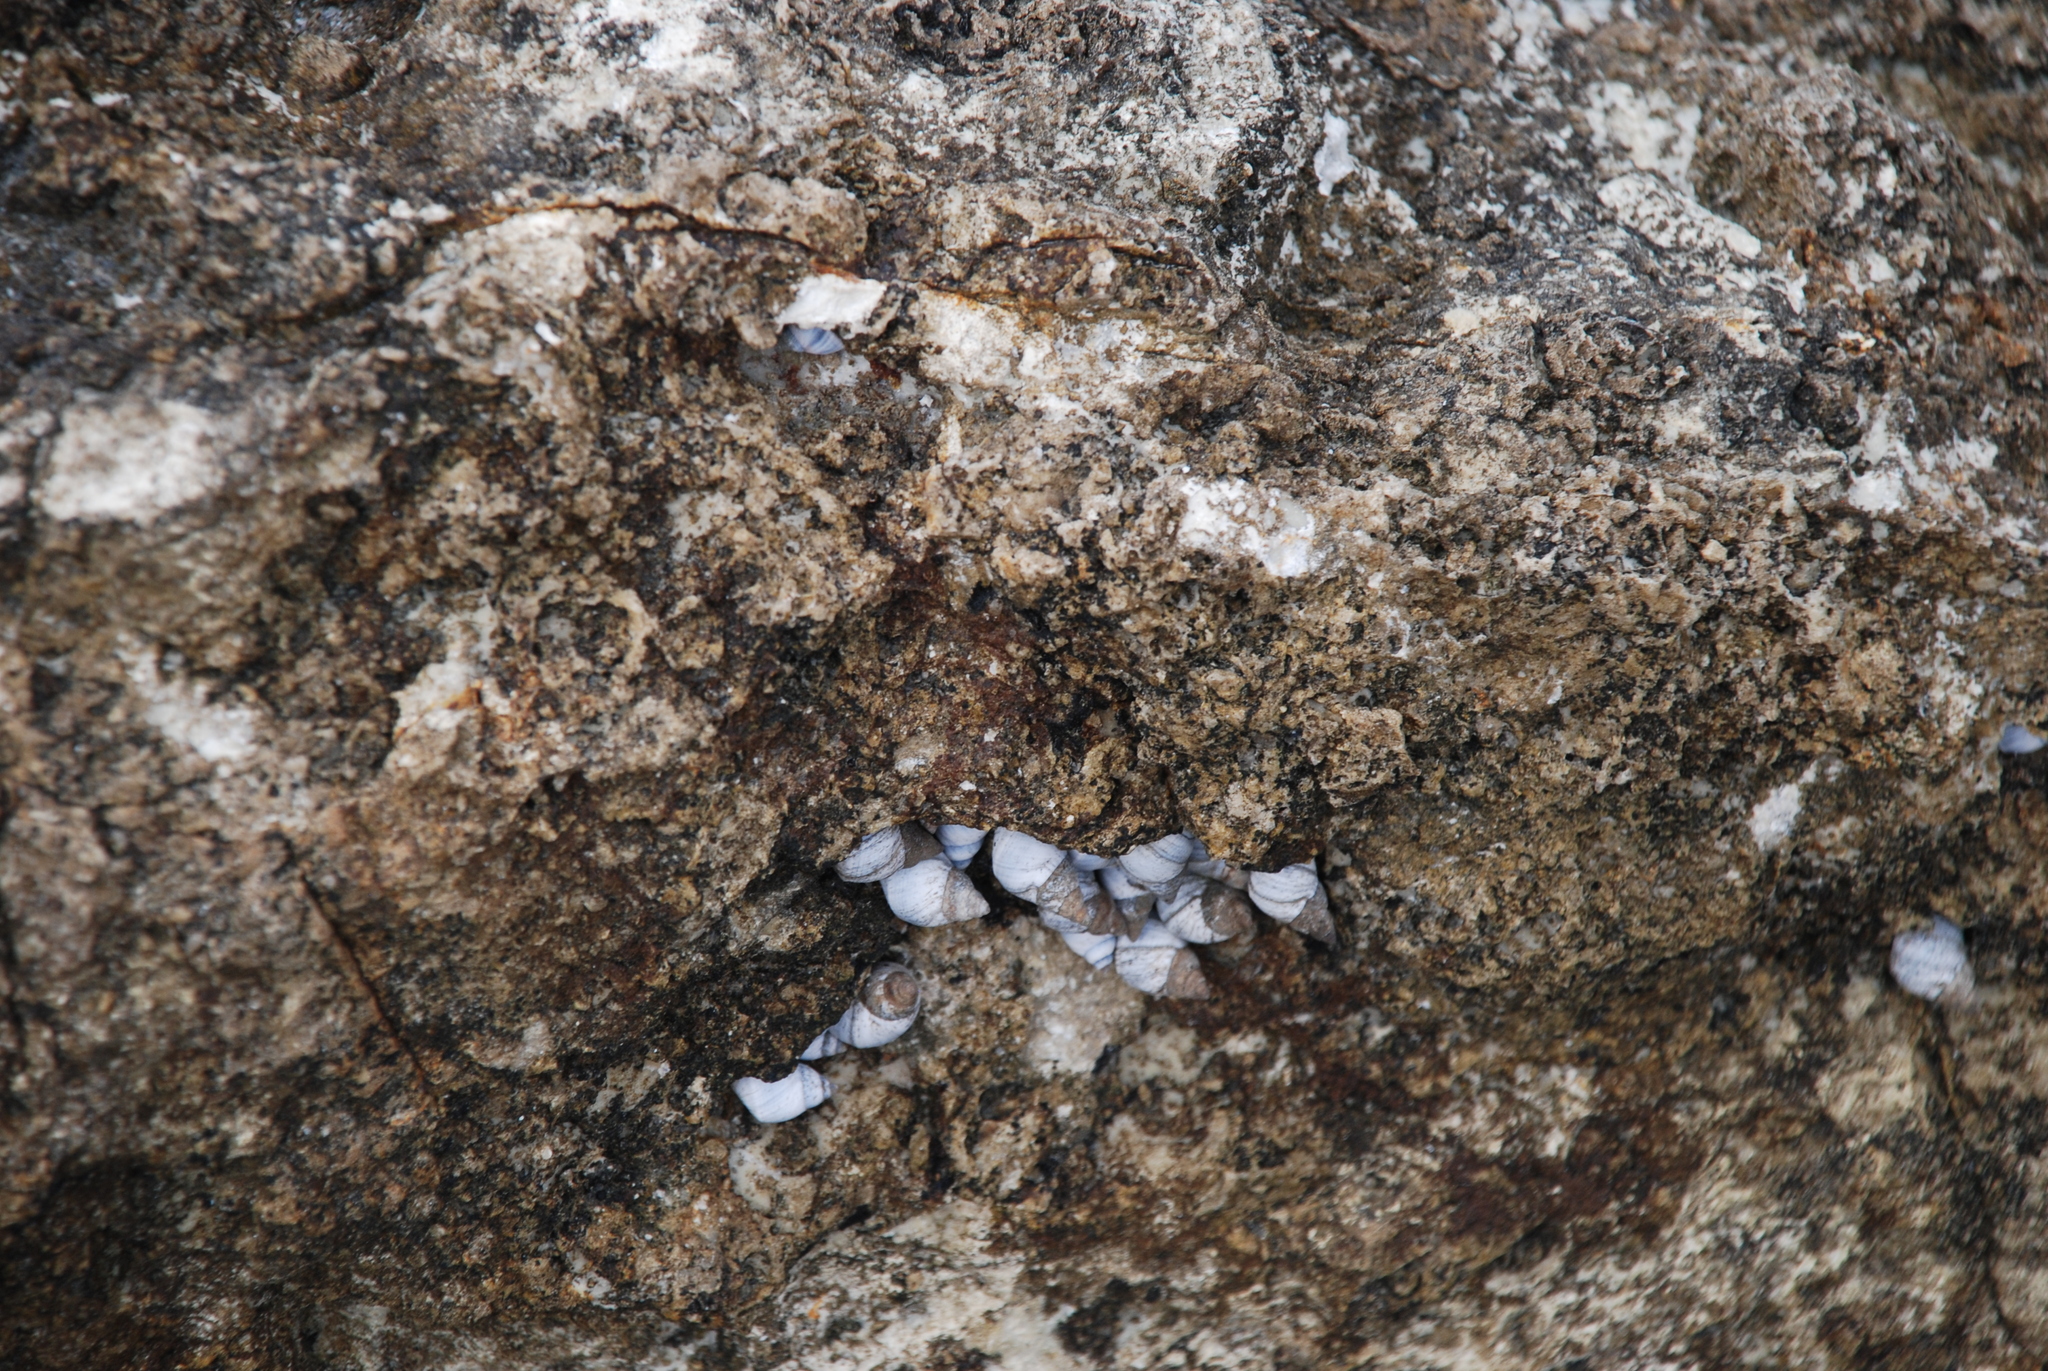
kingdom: Animalia
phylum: Mollusca
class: Gastropoda
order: Littorinimorpha
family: Littorinidae
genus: Austrolittorina
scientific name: Austrolittorina unifasciata
